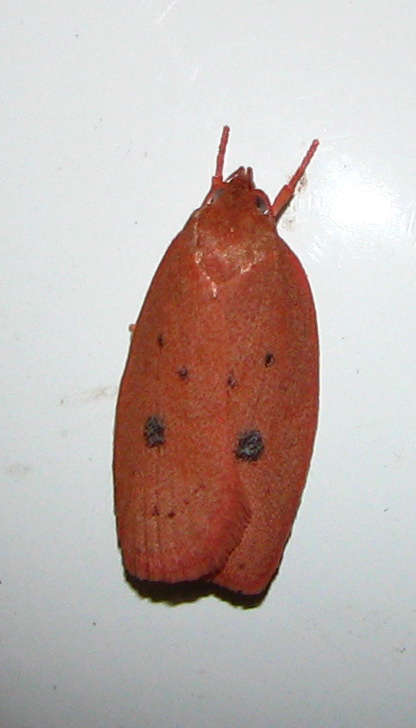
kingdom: Animalia
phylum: Arthropoda
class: Insecta
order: Lepidoptera
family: Oecophoridae
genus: Garrha
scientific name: Garrha pudica
